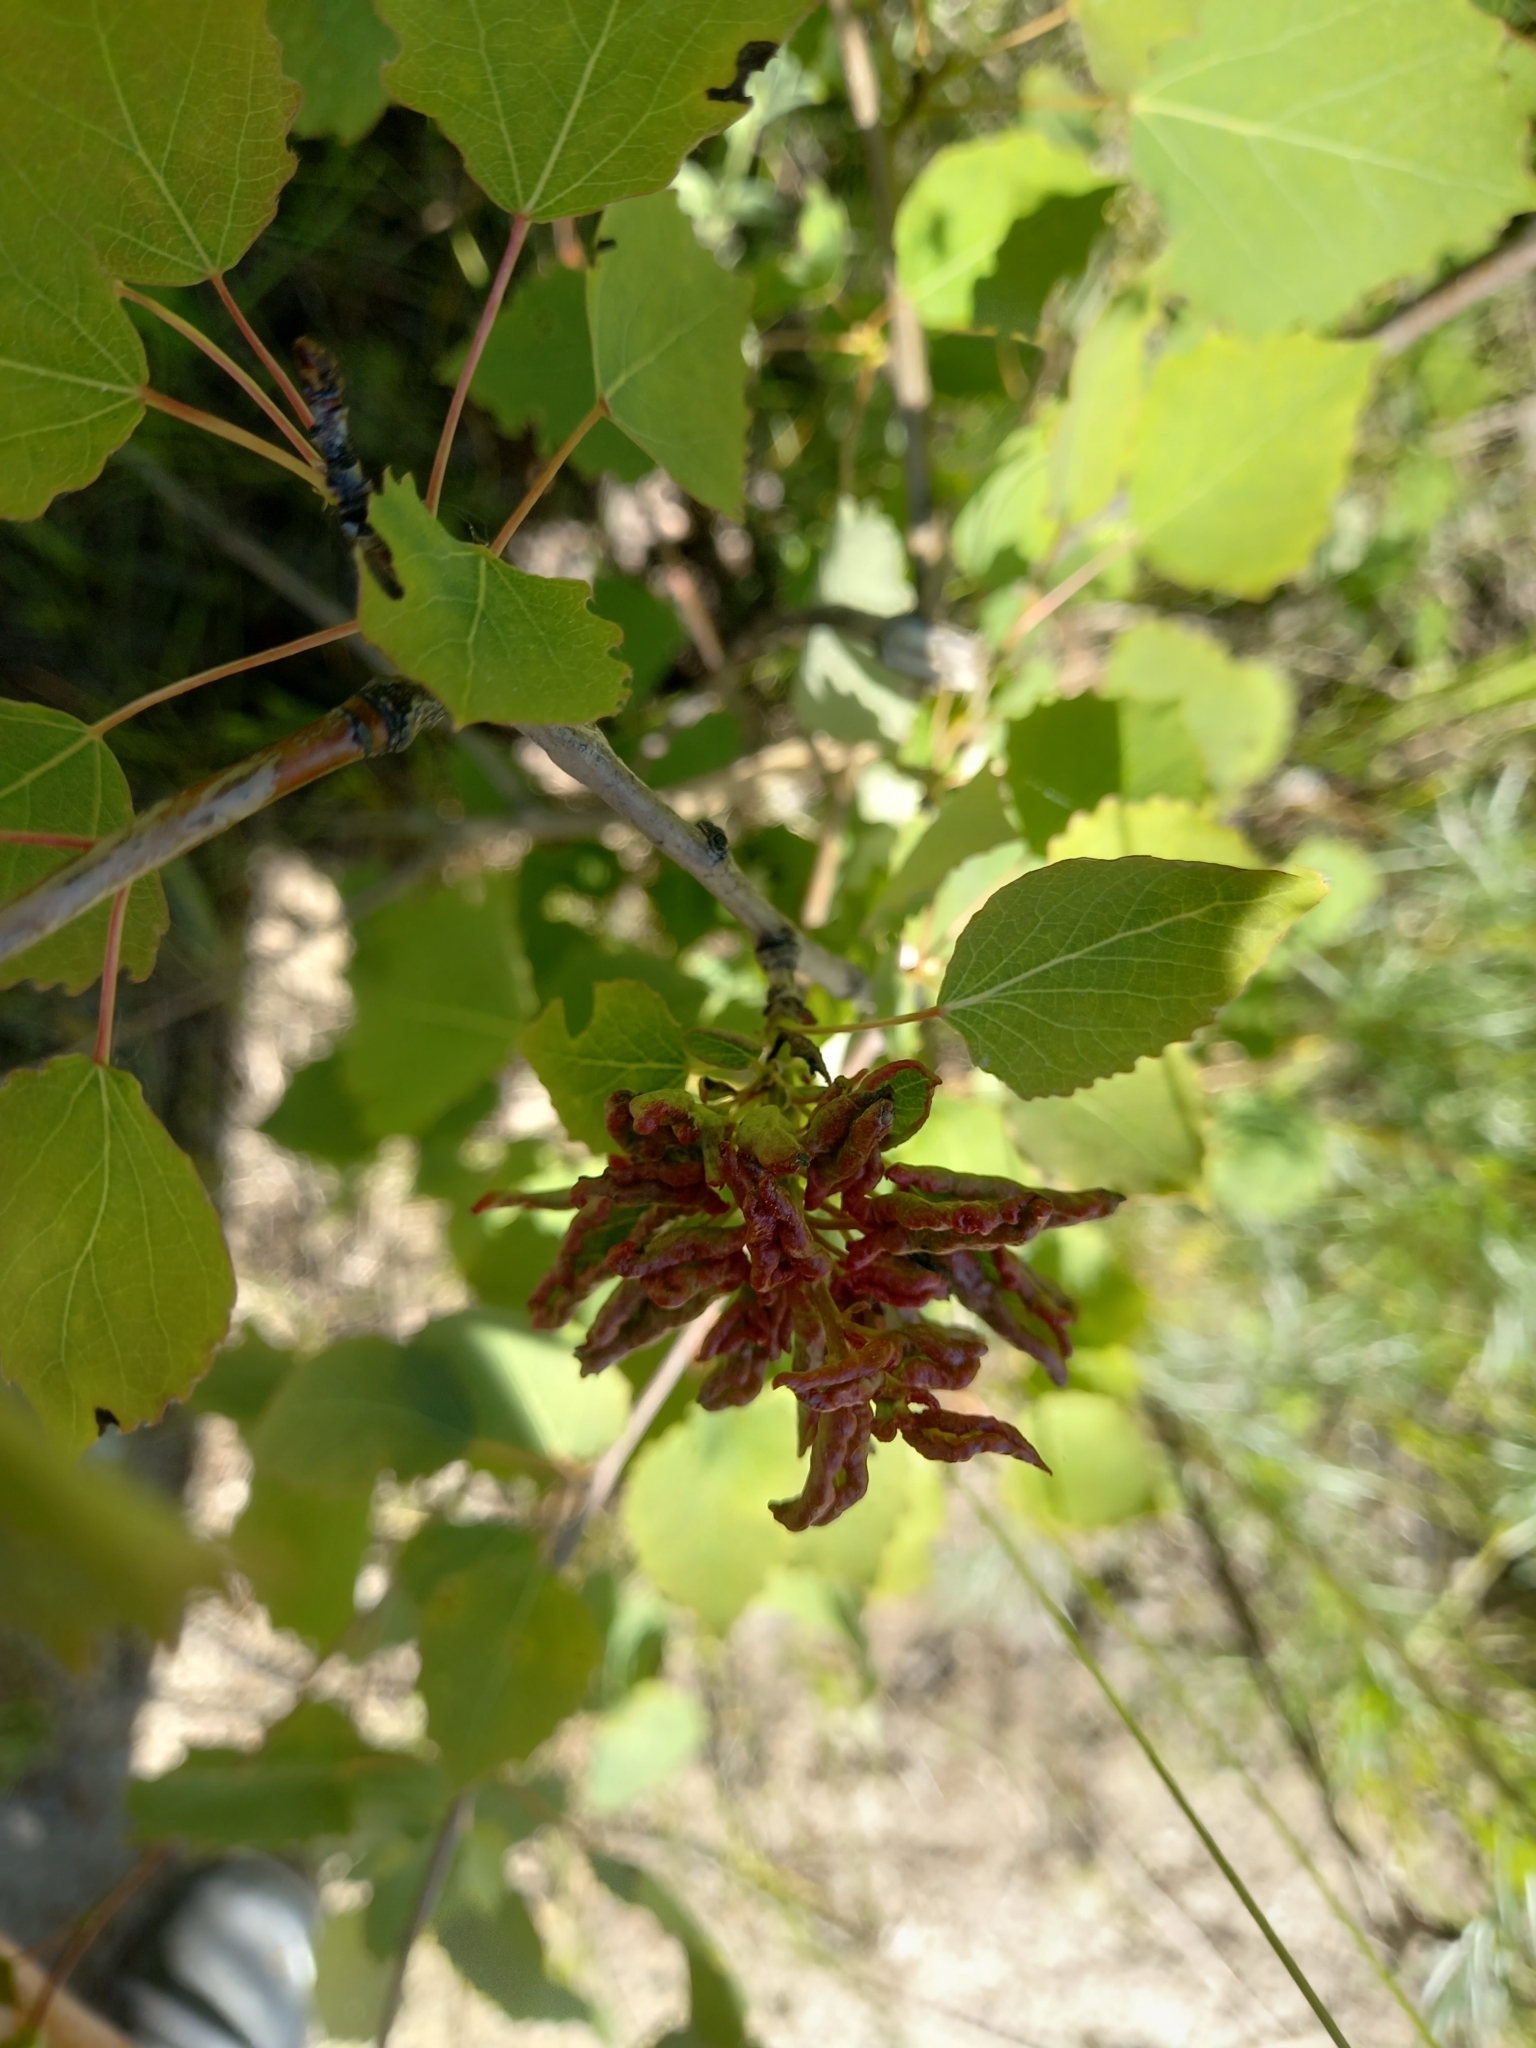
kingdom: Plantae
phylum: Tracheophyta
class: Magnoliopsida
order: Malpighiales
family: Salicaceae
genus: Populus
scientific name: Populus tremula
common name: European aspen
